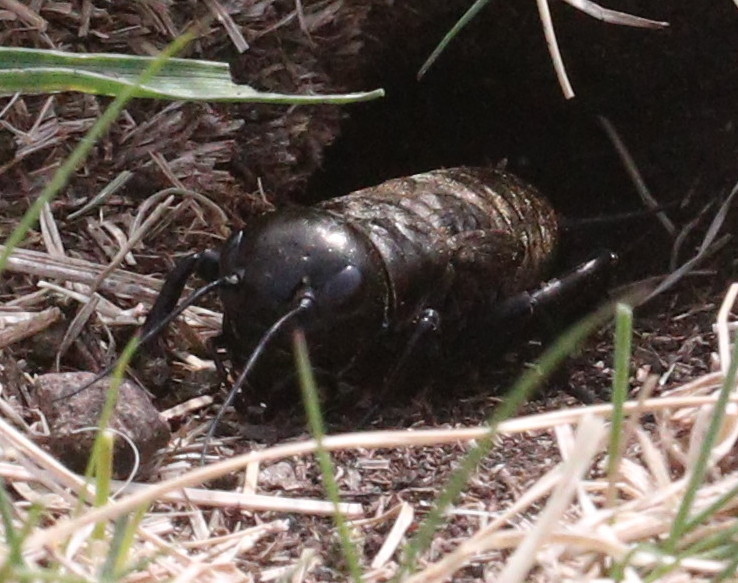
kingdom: Animalia
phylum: Arthropoda
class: Insecta
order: Orthoptera
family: Gryllidae
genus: Gryllus
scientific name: Gryllus campestris
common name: Field cricket
